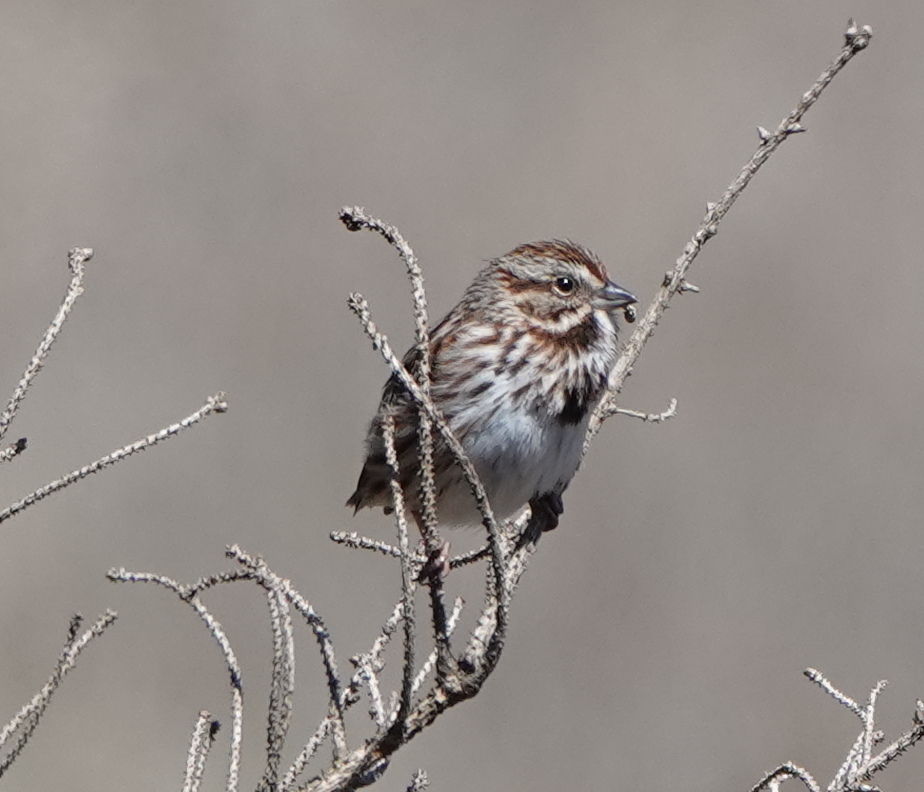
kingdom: Animalia
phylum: Chordata
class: Aves
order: Passeriformes
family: Passerellidae
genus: Melospiza
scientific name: Melospiza melodia
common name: Song sparrow
